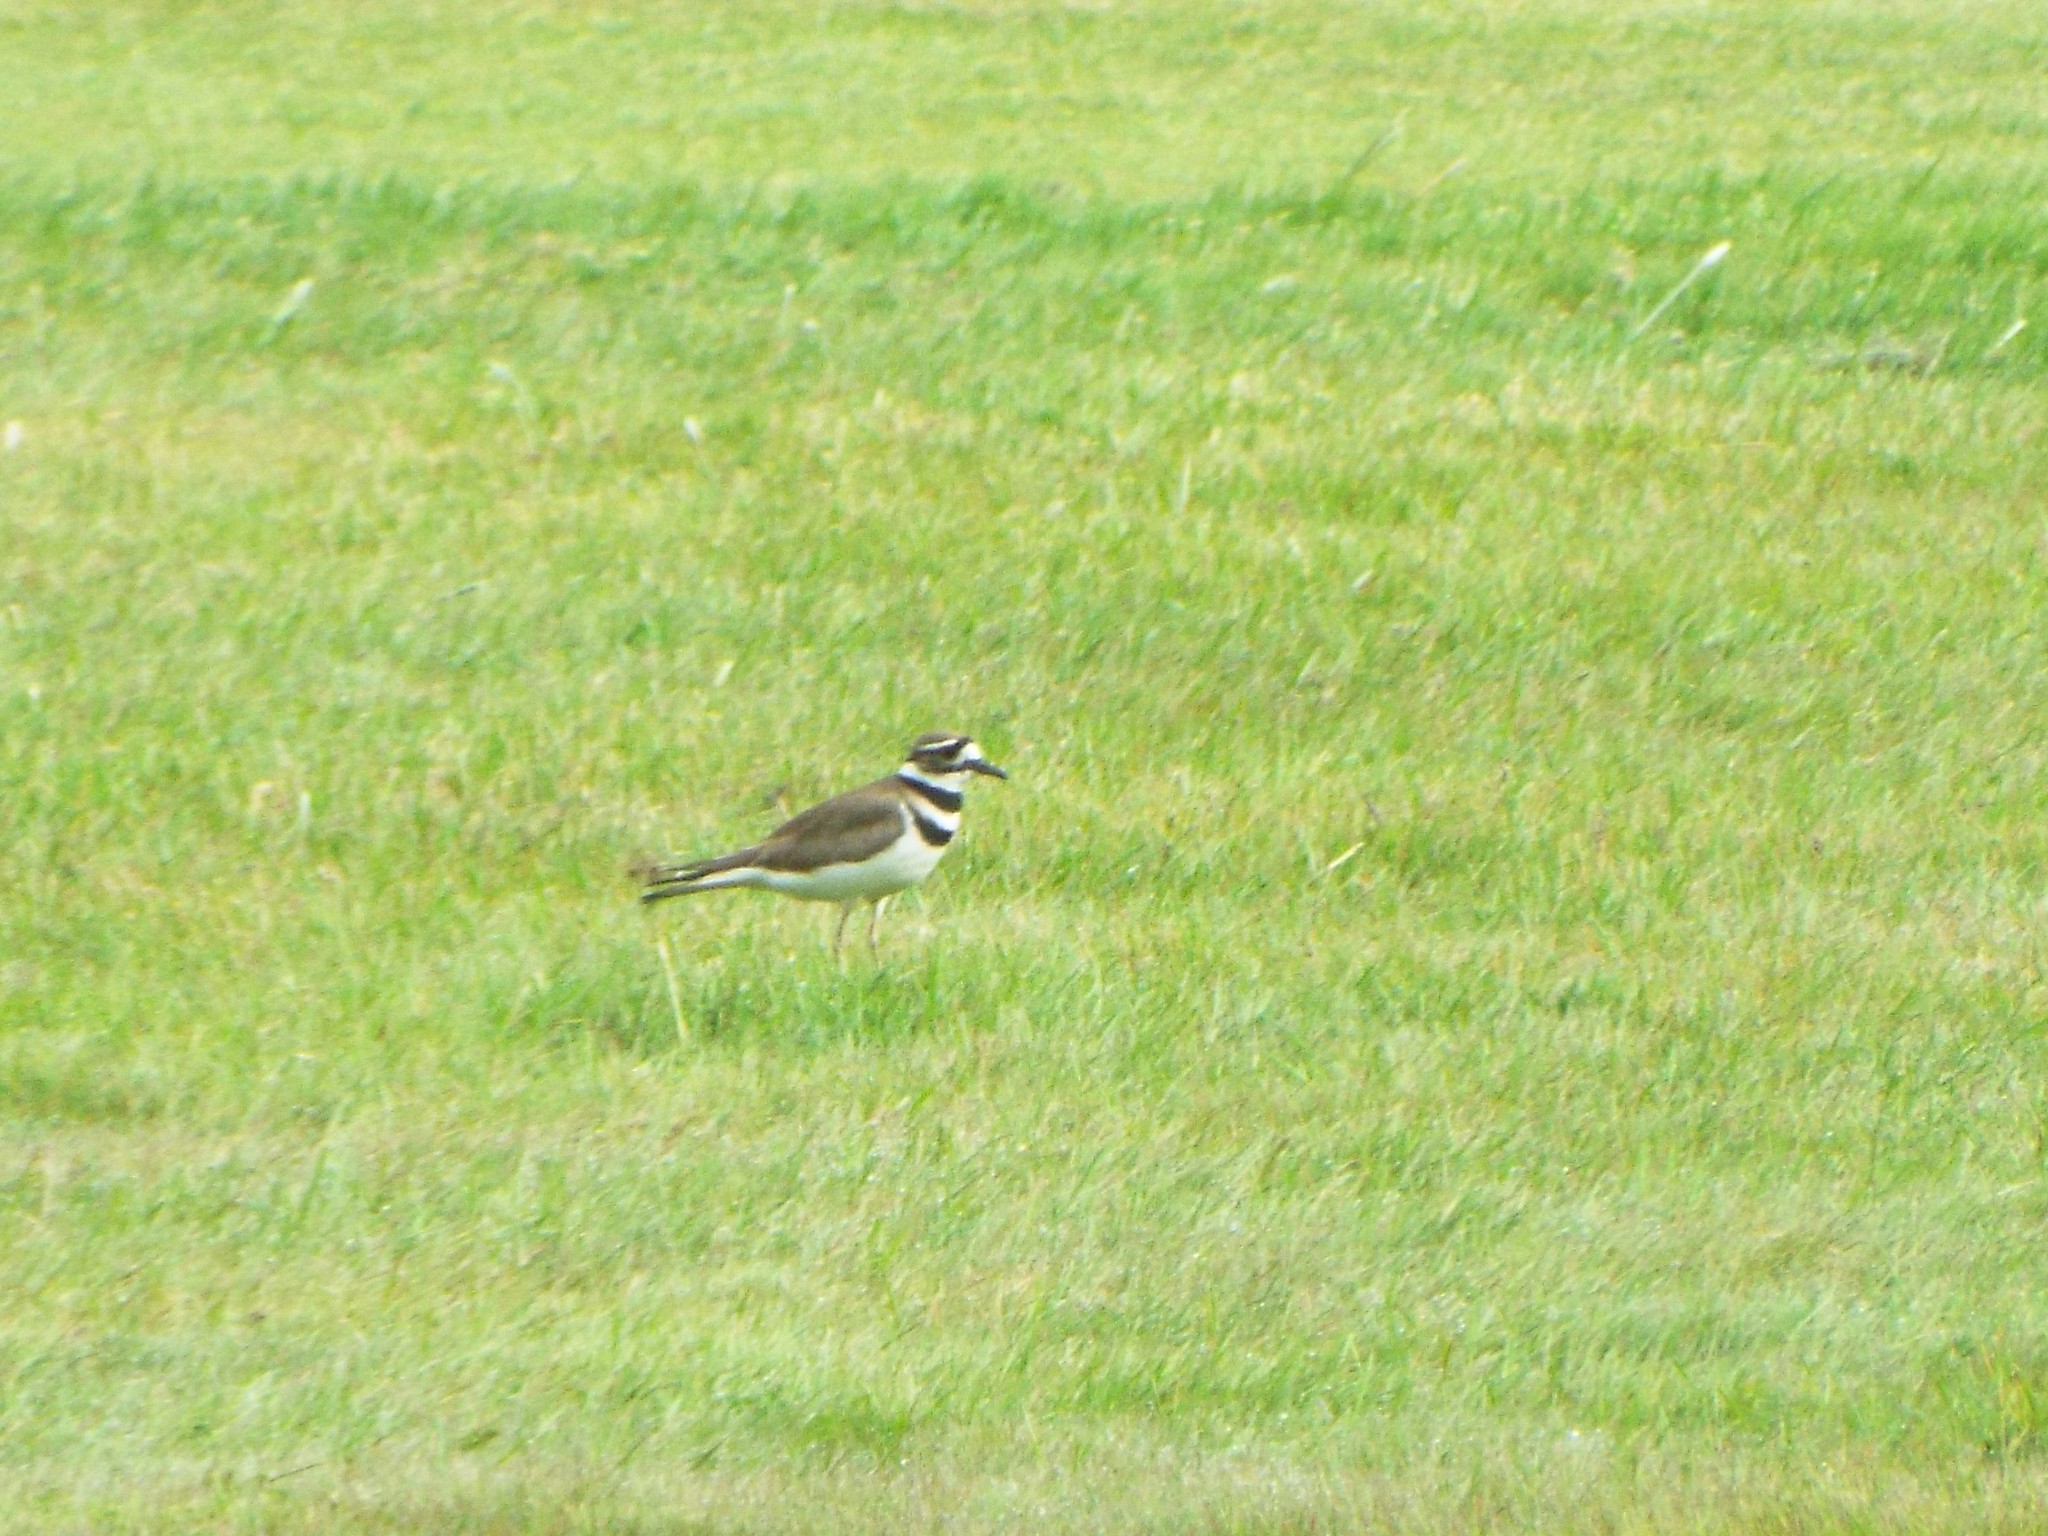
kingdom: Animalia
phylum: Chordata
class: Aves
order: Charadriiformes
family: Charadriidae
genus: Charadrius
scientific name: Charadrius vociferus
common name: Killdeer
